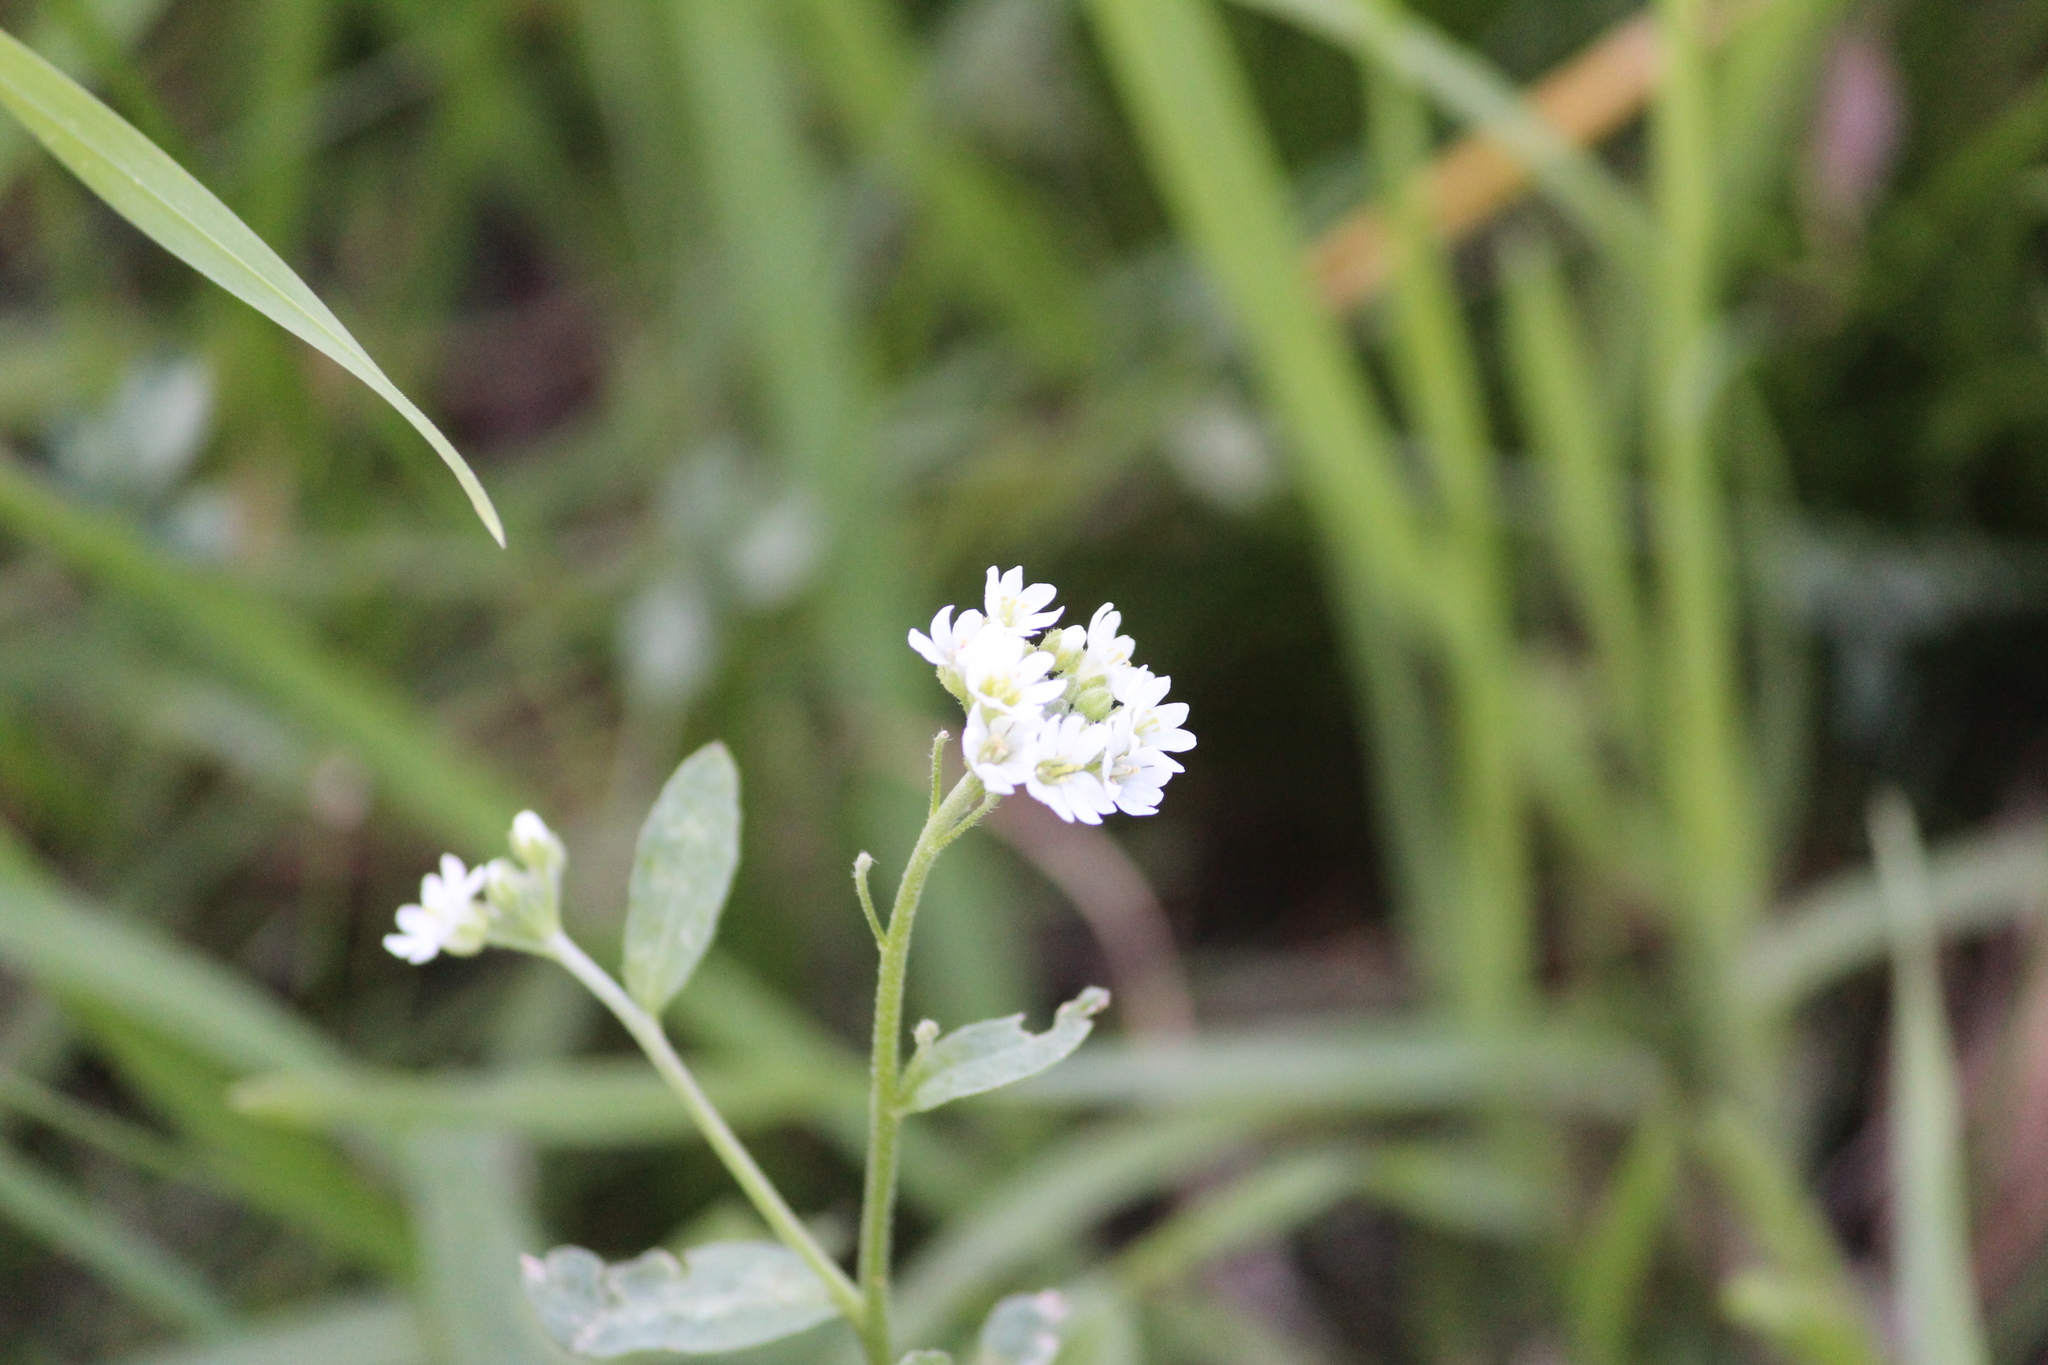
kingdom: Plantae
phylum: Tracheophyta
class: Magnoliopsida
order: Brassicales
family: Brassicaceae
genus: Berteroa
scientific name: Berteroa incana
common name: Hoary alison
